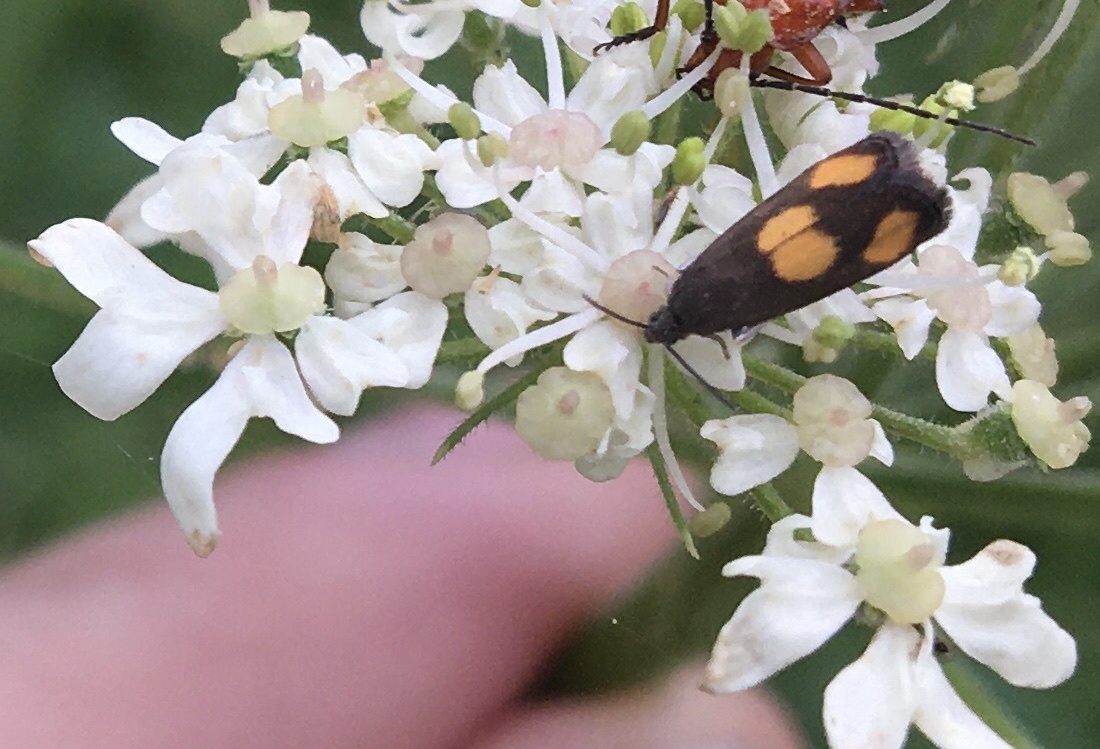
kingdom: Animalia
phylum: Arthropoda
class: Insecta
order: Lepidoptera
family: Tortricidae
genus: Pammene
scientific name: Pammene aurana
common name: Orange-spot piercer
